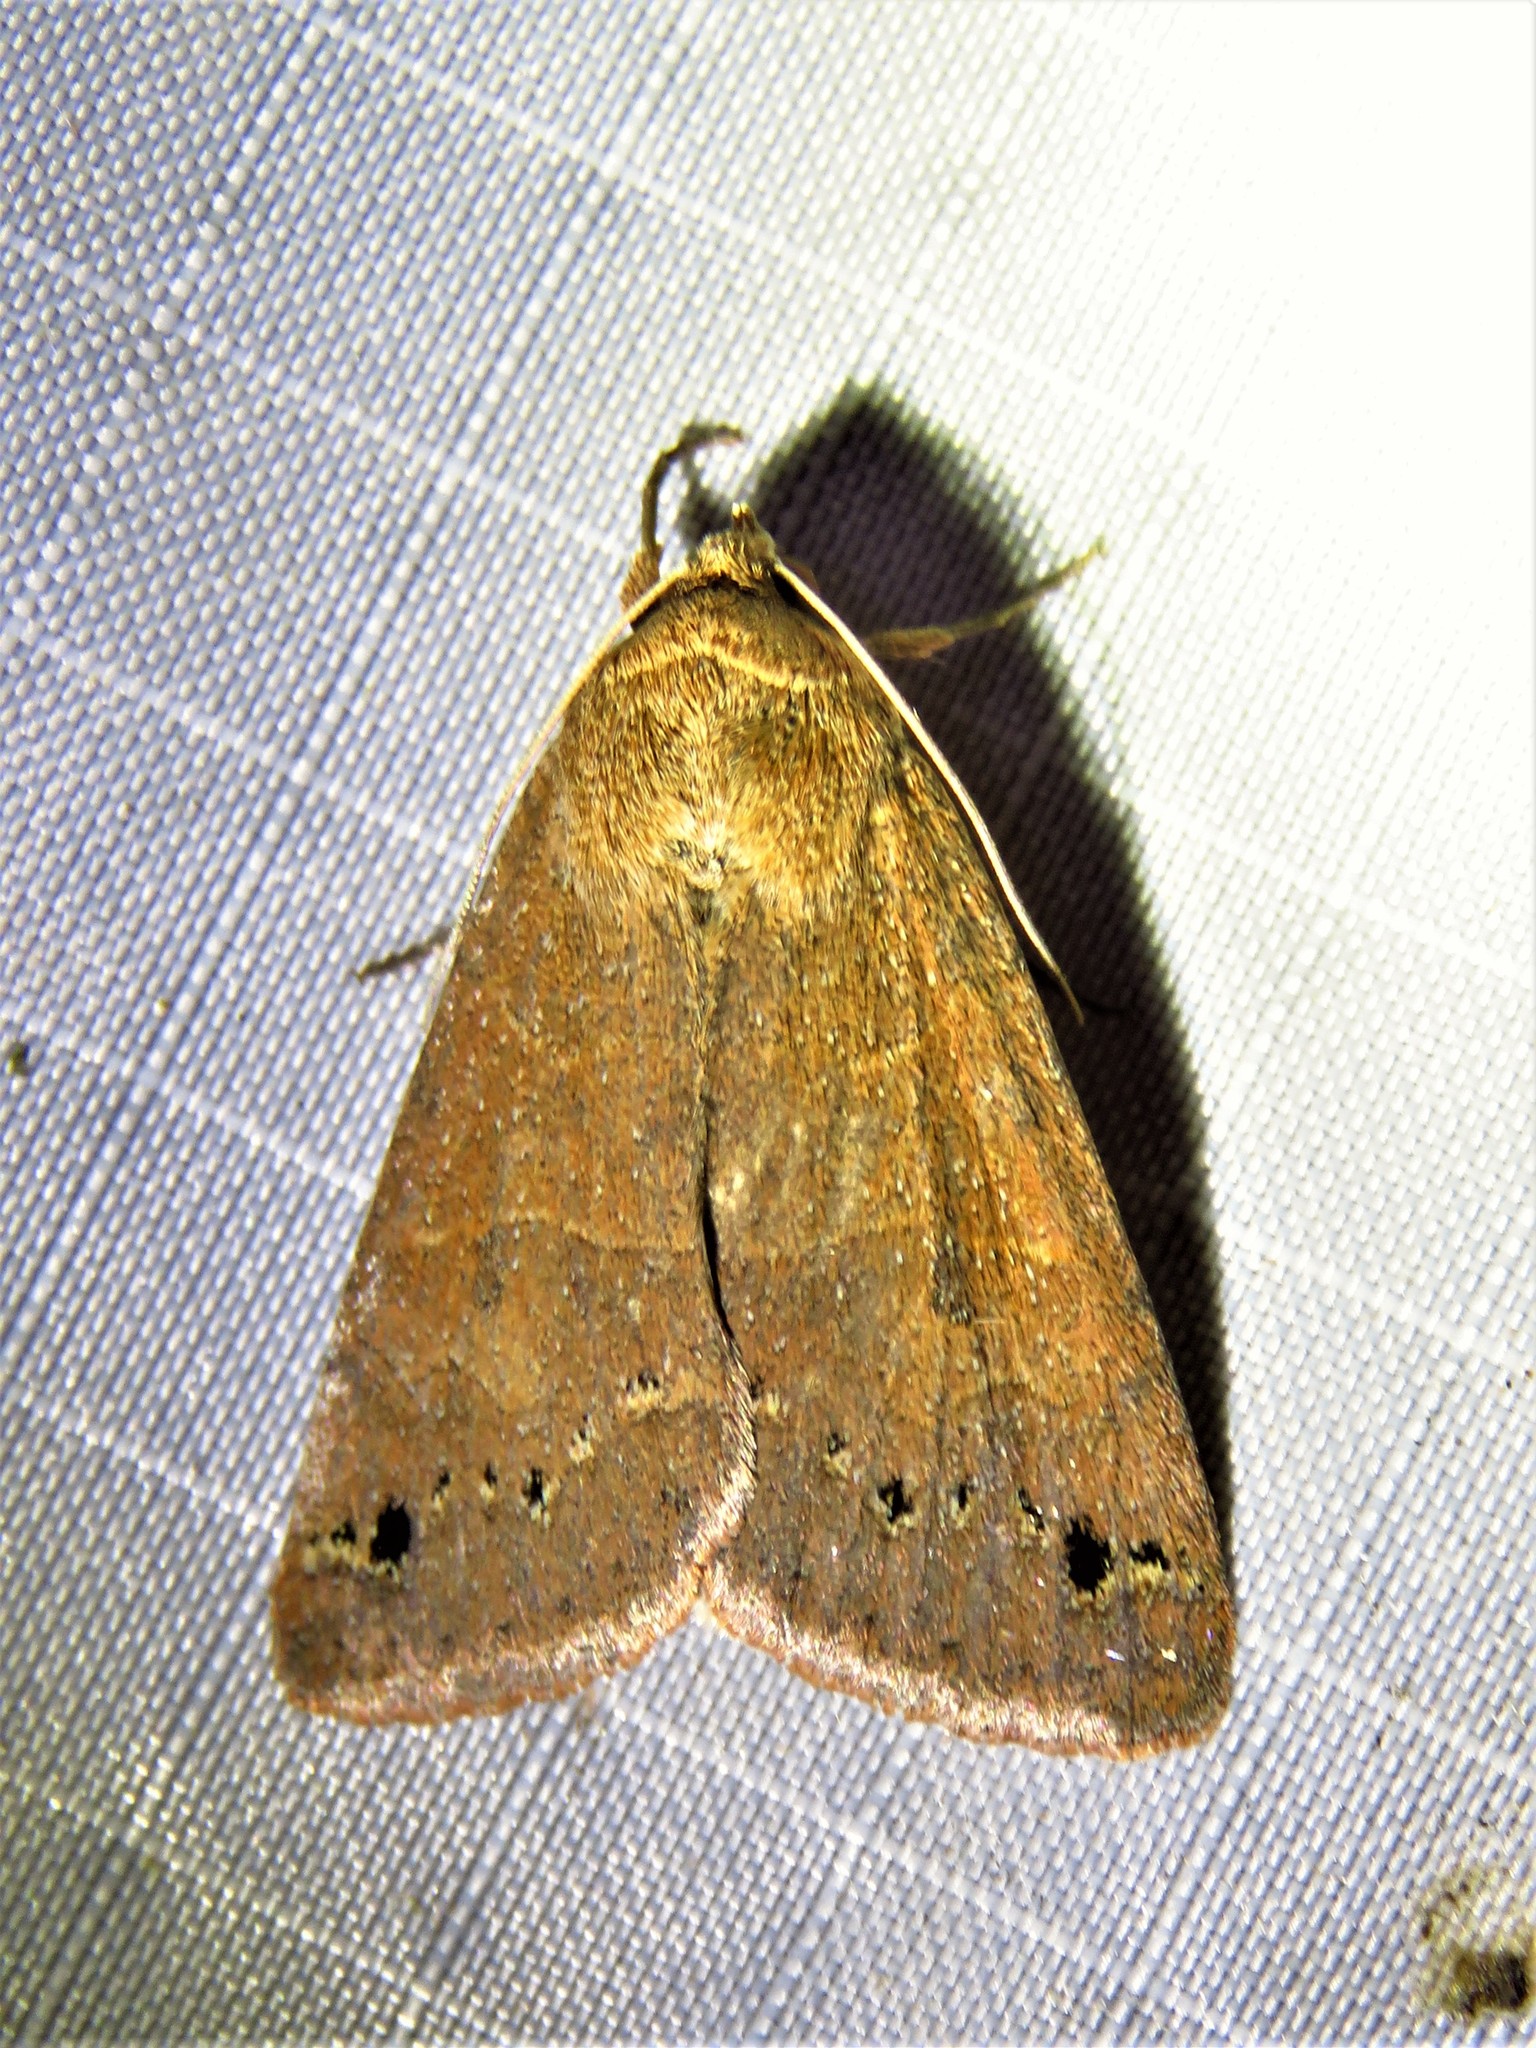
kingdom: Animalia
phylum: Arthropoda
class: Insecta
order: Lepidoptera
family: Erebidae
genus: Cissusa
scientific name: Cissusa spadix
